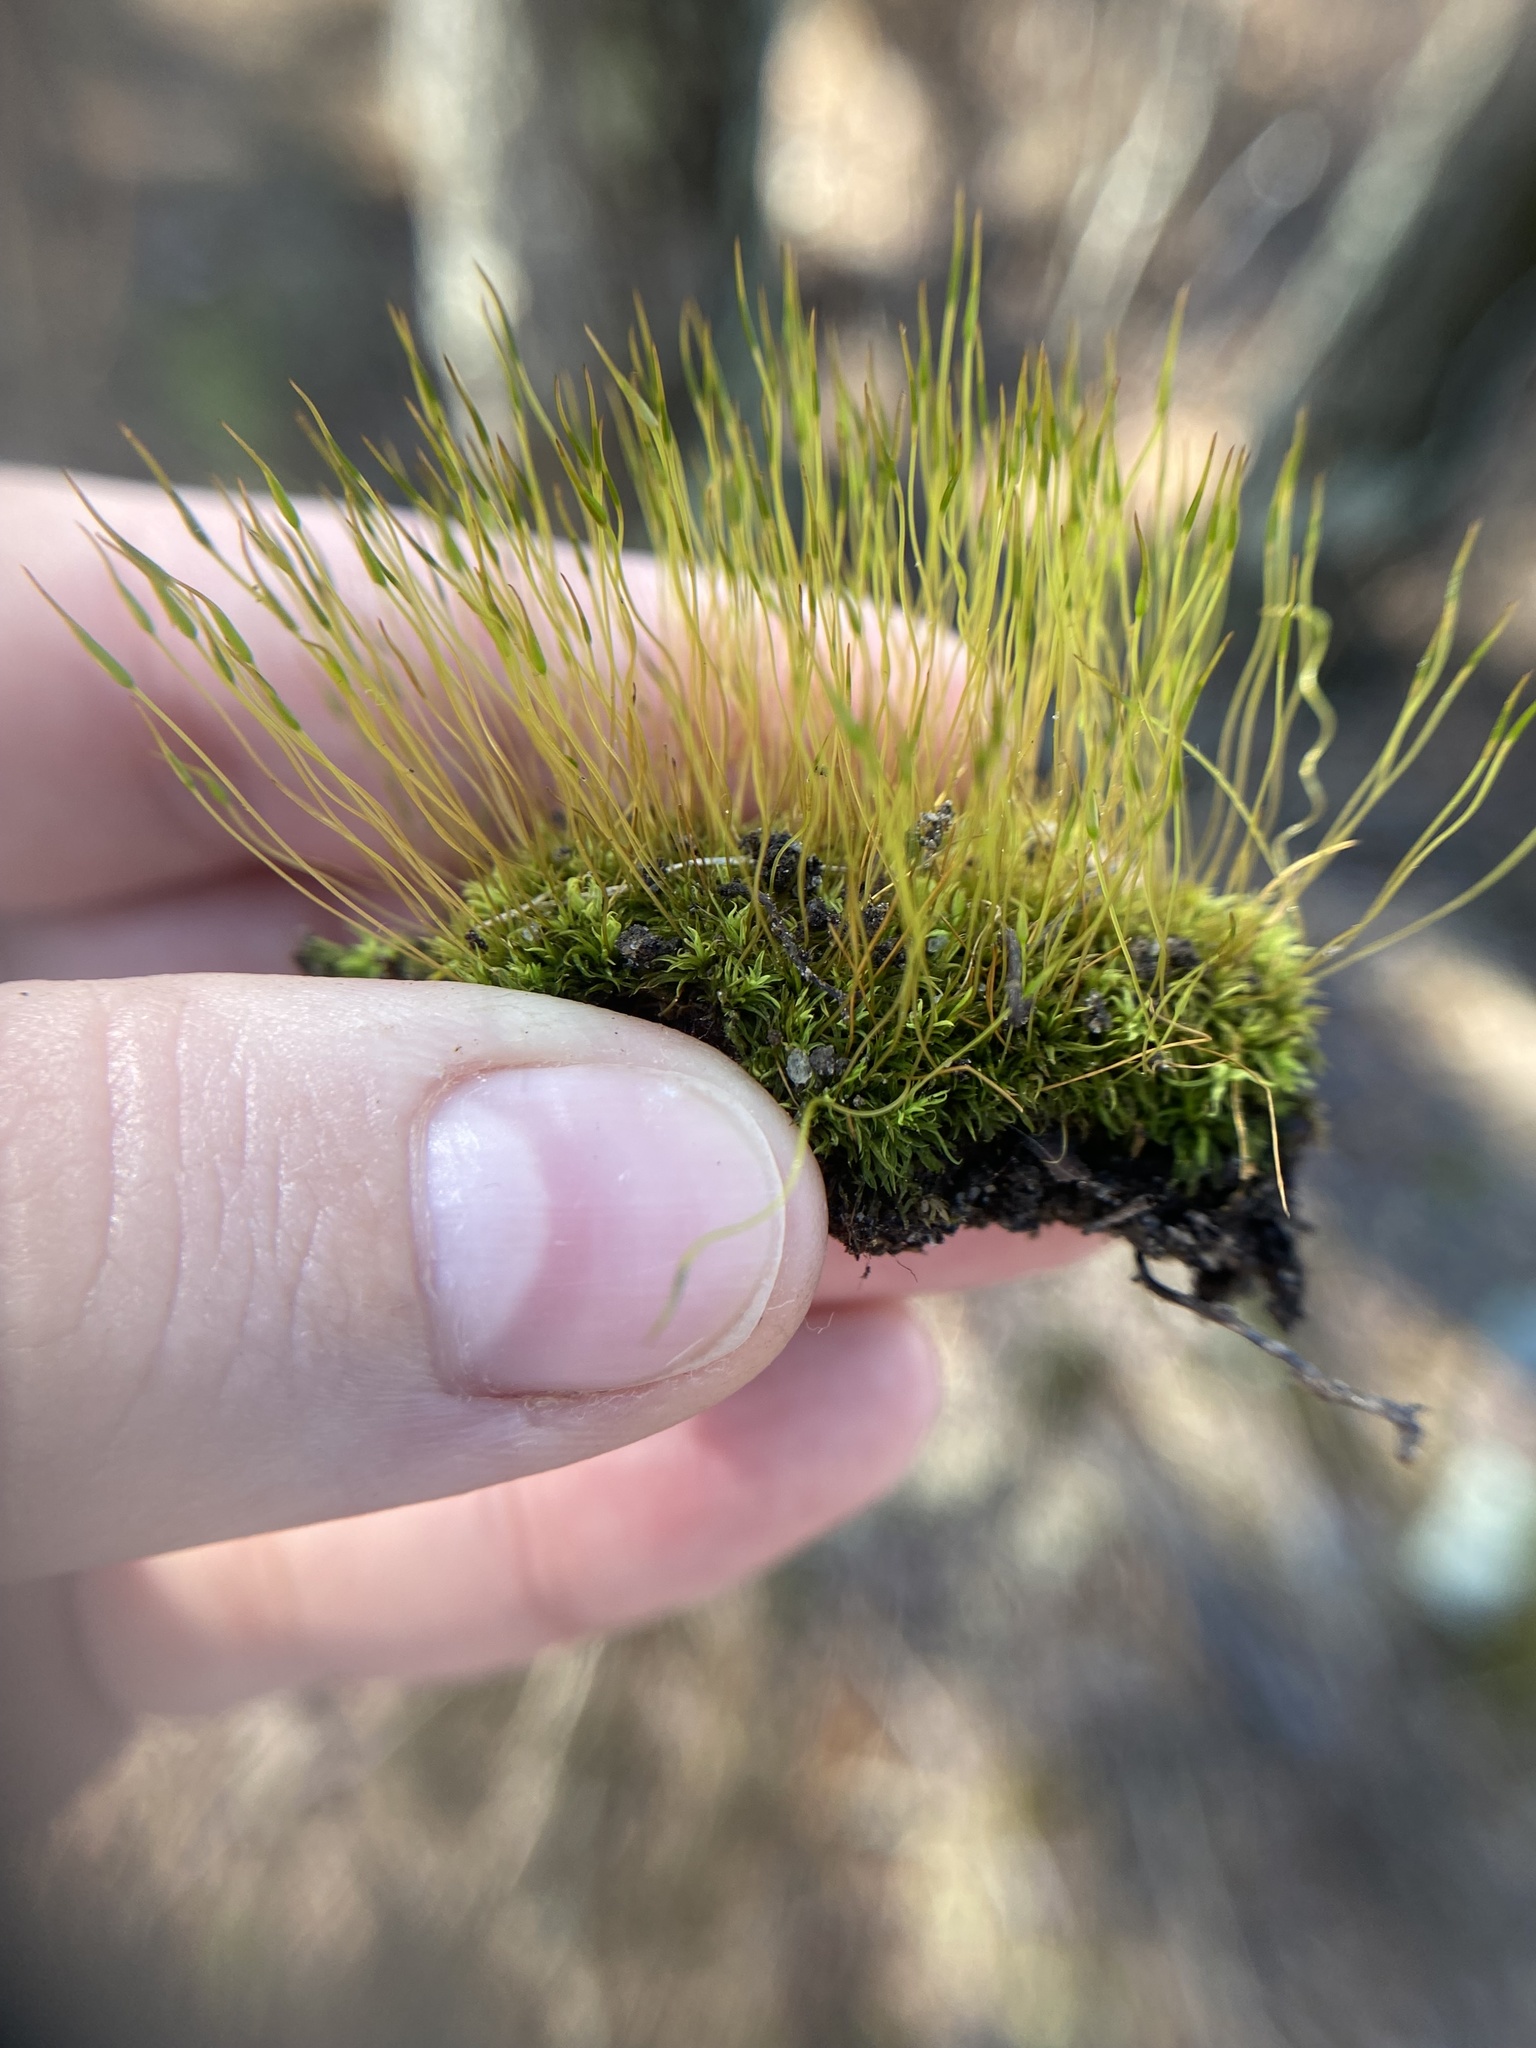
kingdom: Plantae
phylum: Bryophyta
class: Bryopsida
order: Dicranales
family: Ditrichaceae
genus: Ditrichum
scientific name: Ditrichum pallidum
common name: Pale cow-hair moss
